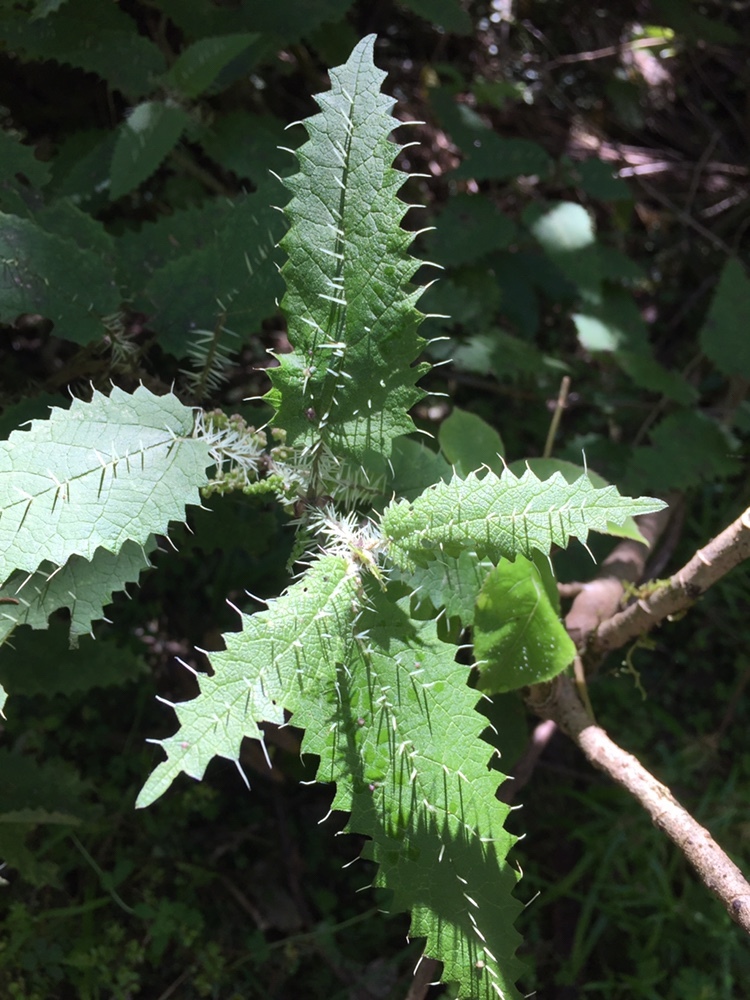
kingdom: Plantae
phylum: Tracheophyta
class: Magnoliopsida
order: Rosales
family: Urticaceae
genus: Urtica
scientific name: Urtica ferox
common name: Tree nettle
